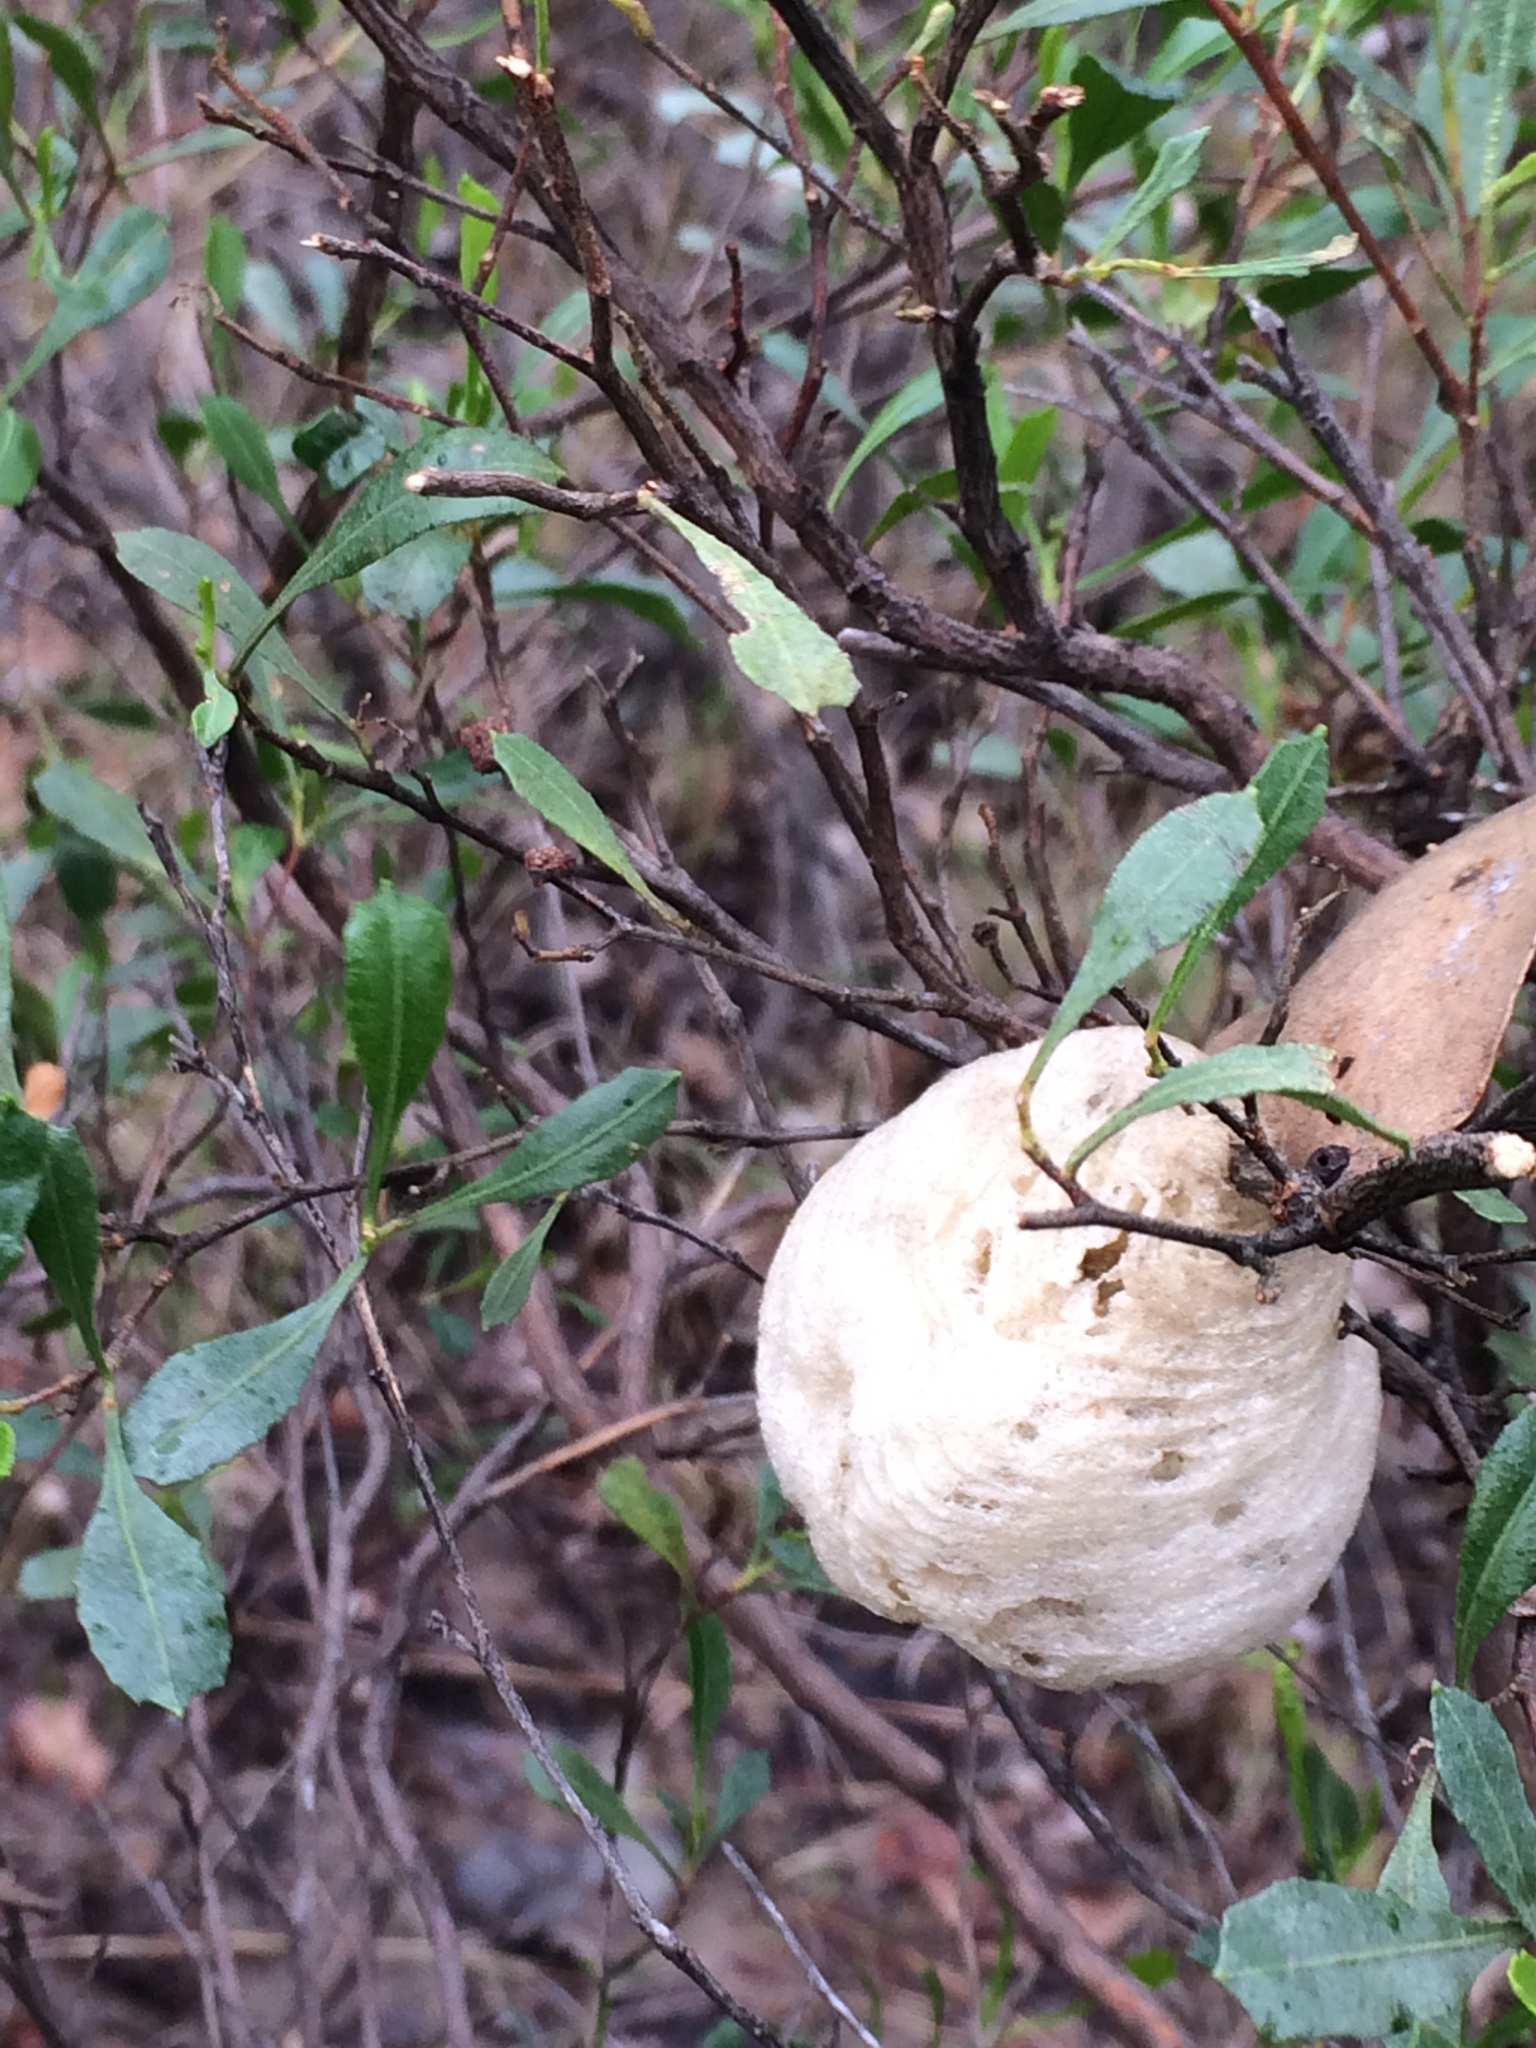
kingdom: Animalia
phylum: Arthropoda
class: Insecta
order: Mantodea
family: Mantidae
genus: Archimantis
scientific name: Archimantis latistyla
